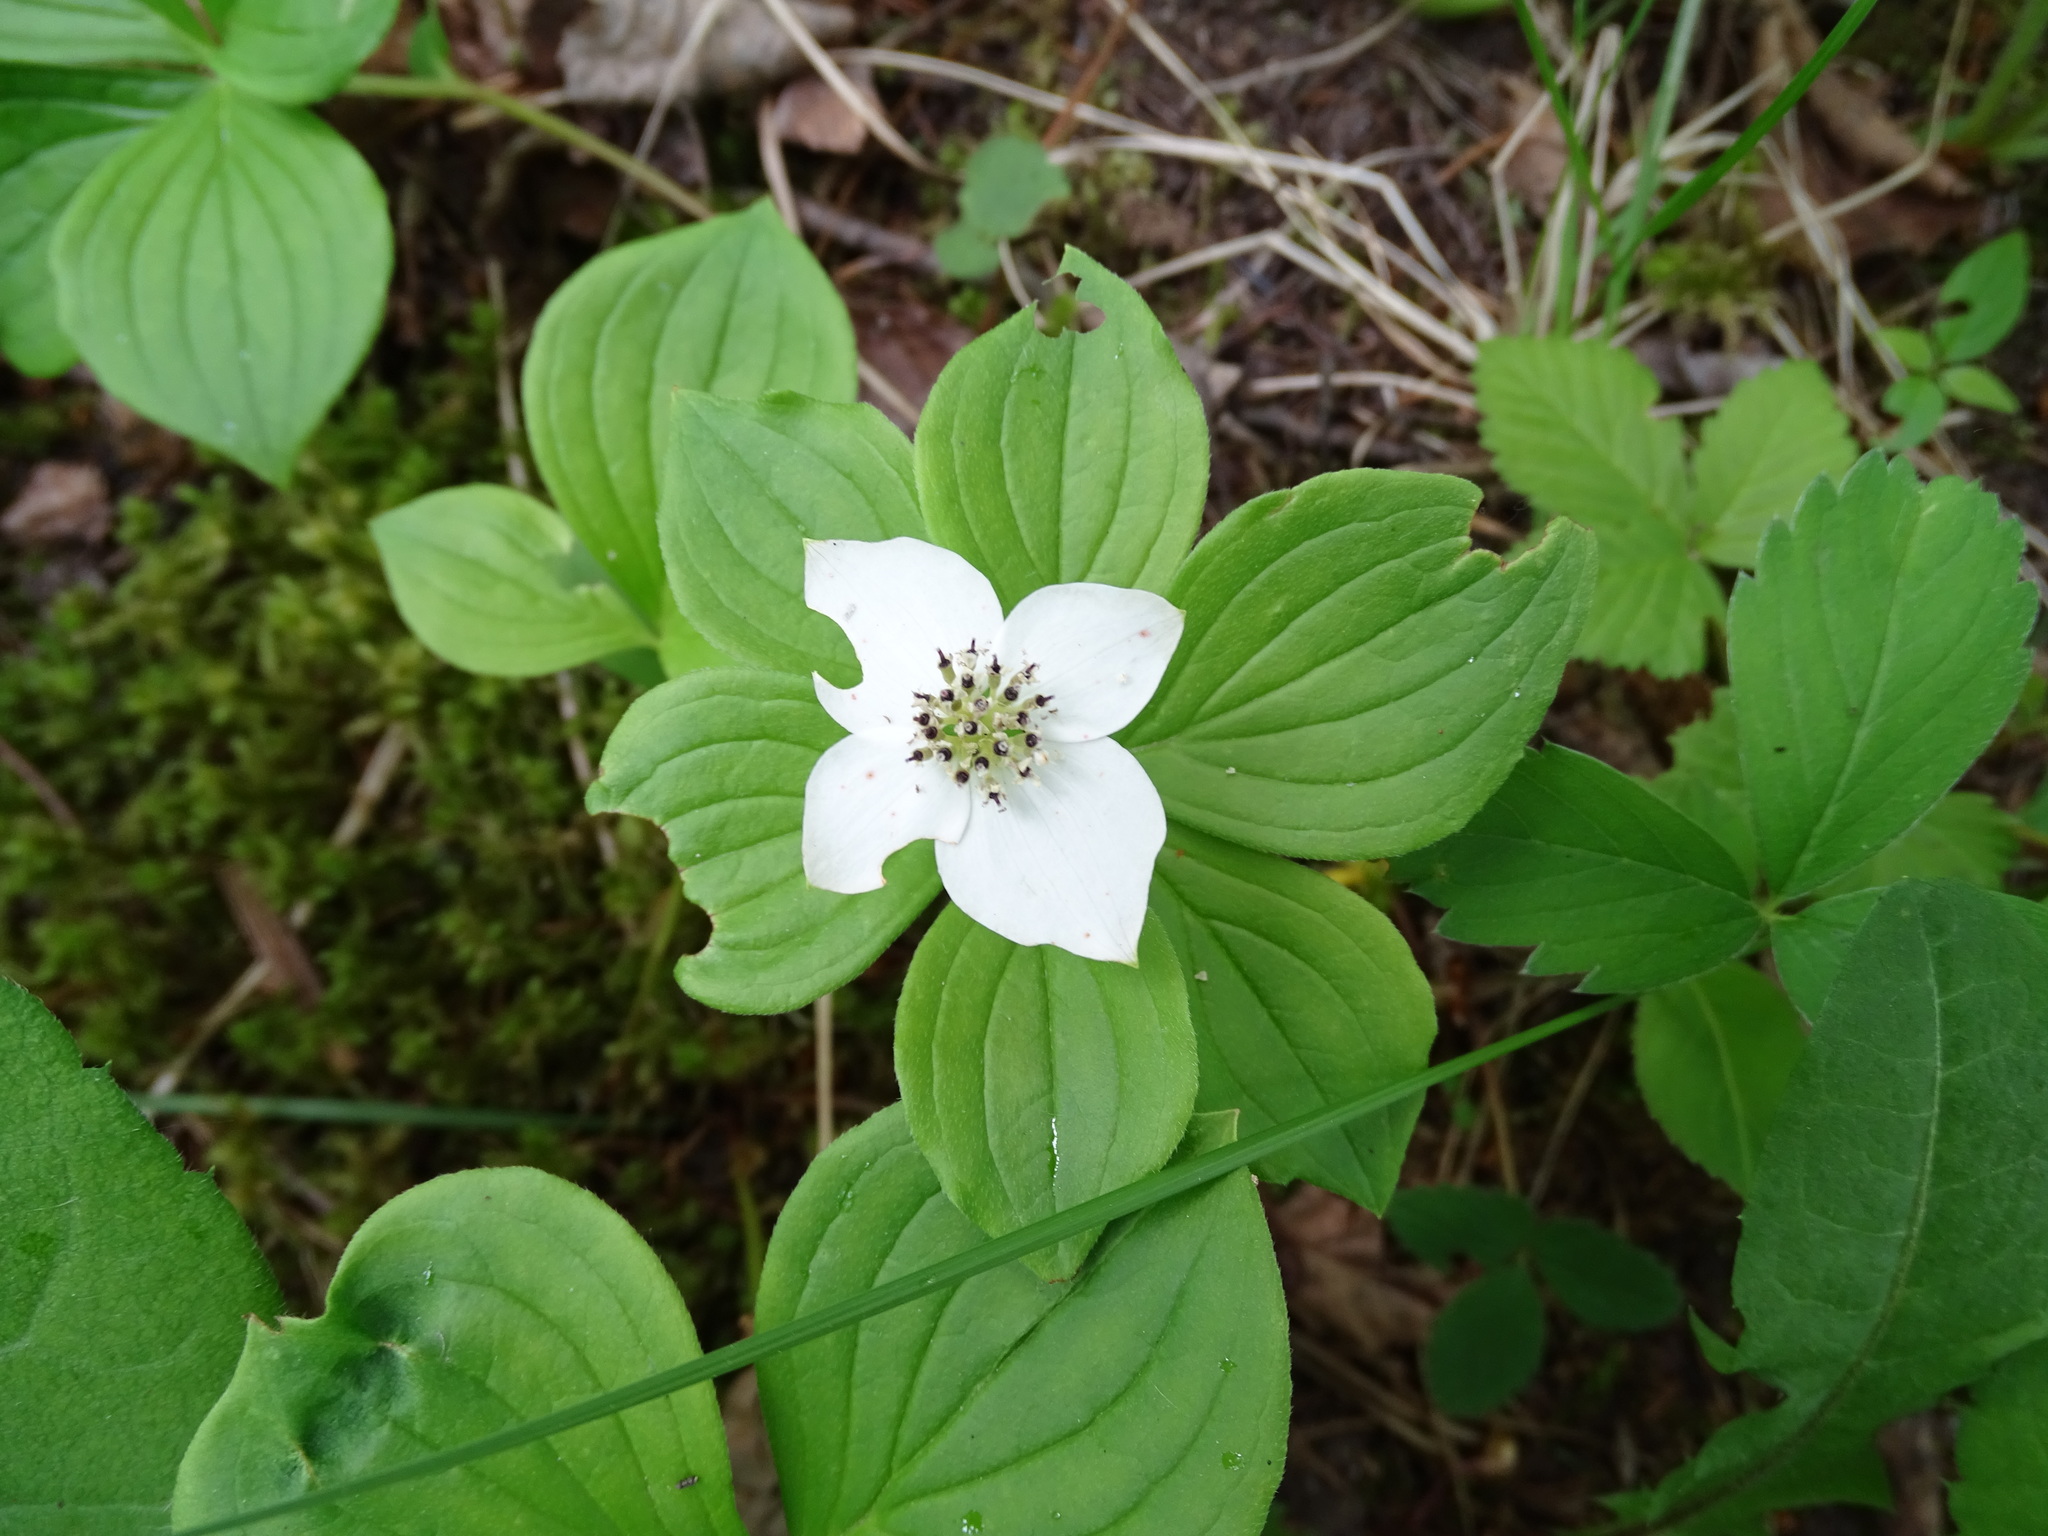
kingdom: Plantae
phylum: Tracheophyta
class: Magnoliopsida
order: Cornales
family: Cornaceae
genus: Cornus
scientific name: Cornus canadensis
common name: Creeping dogwood
